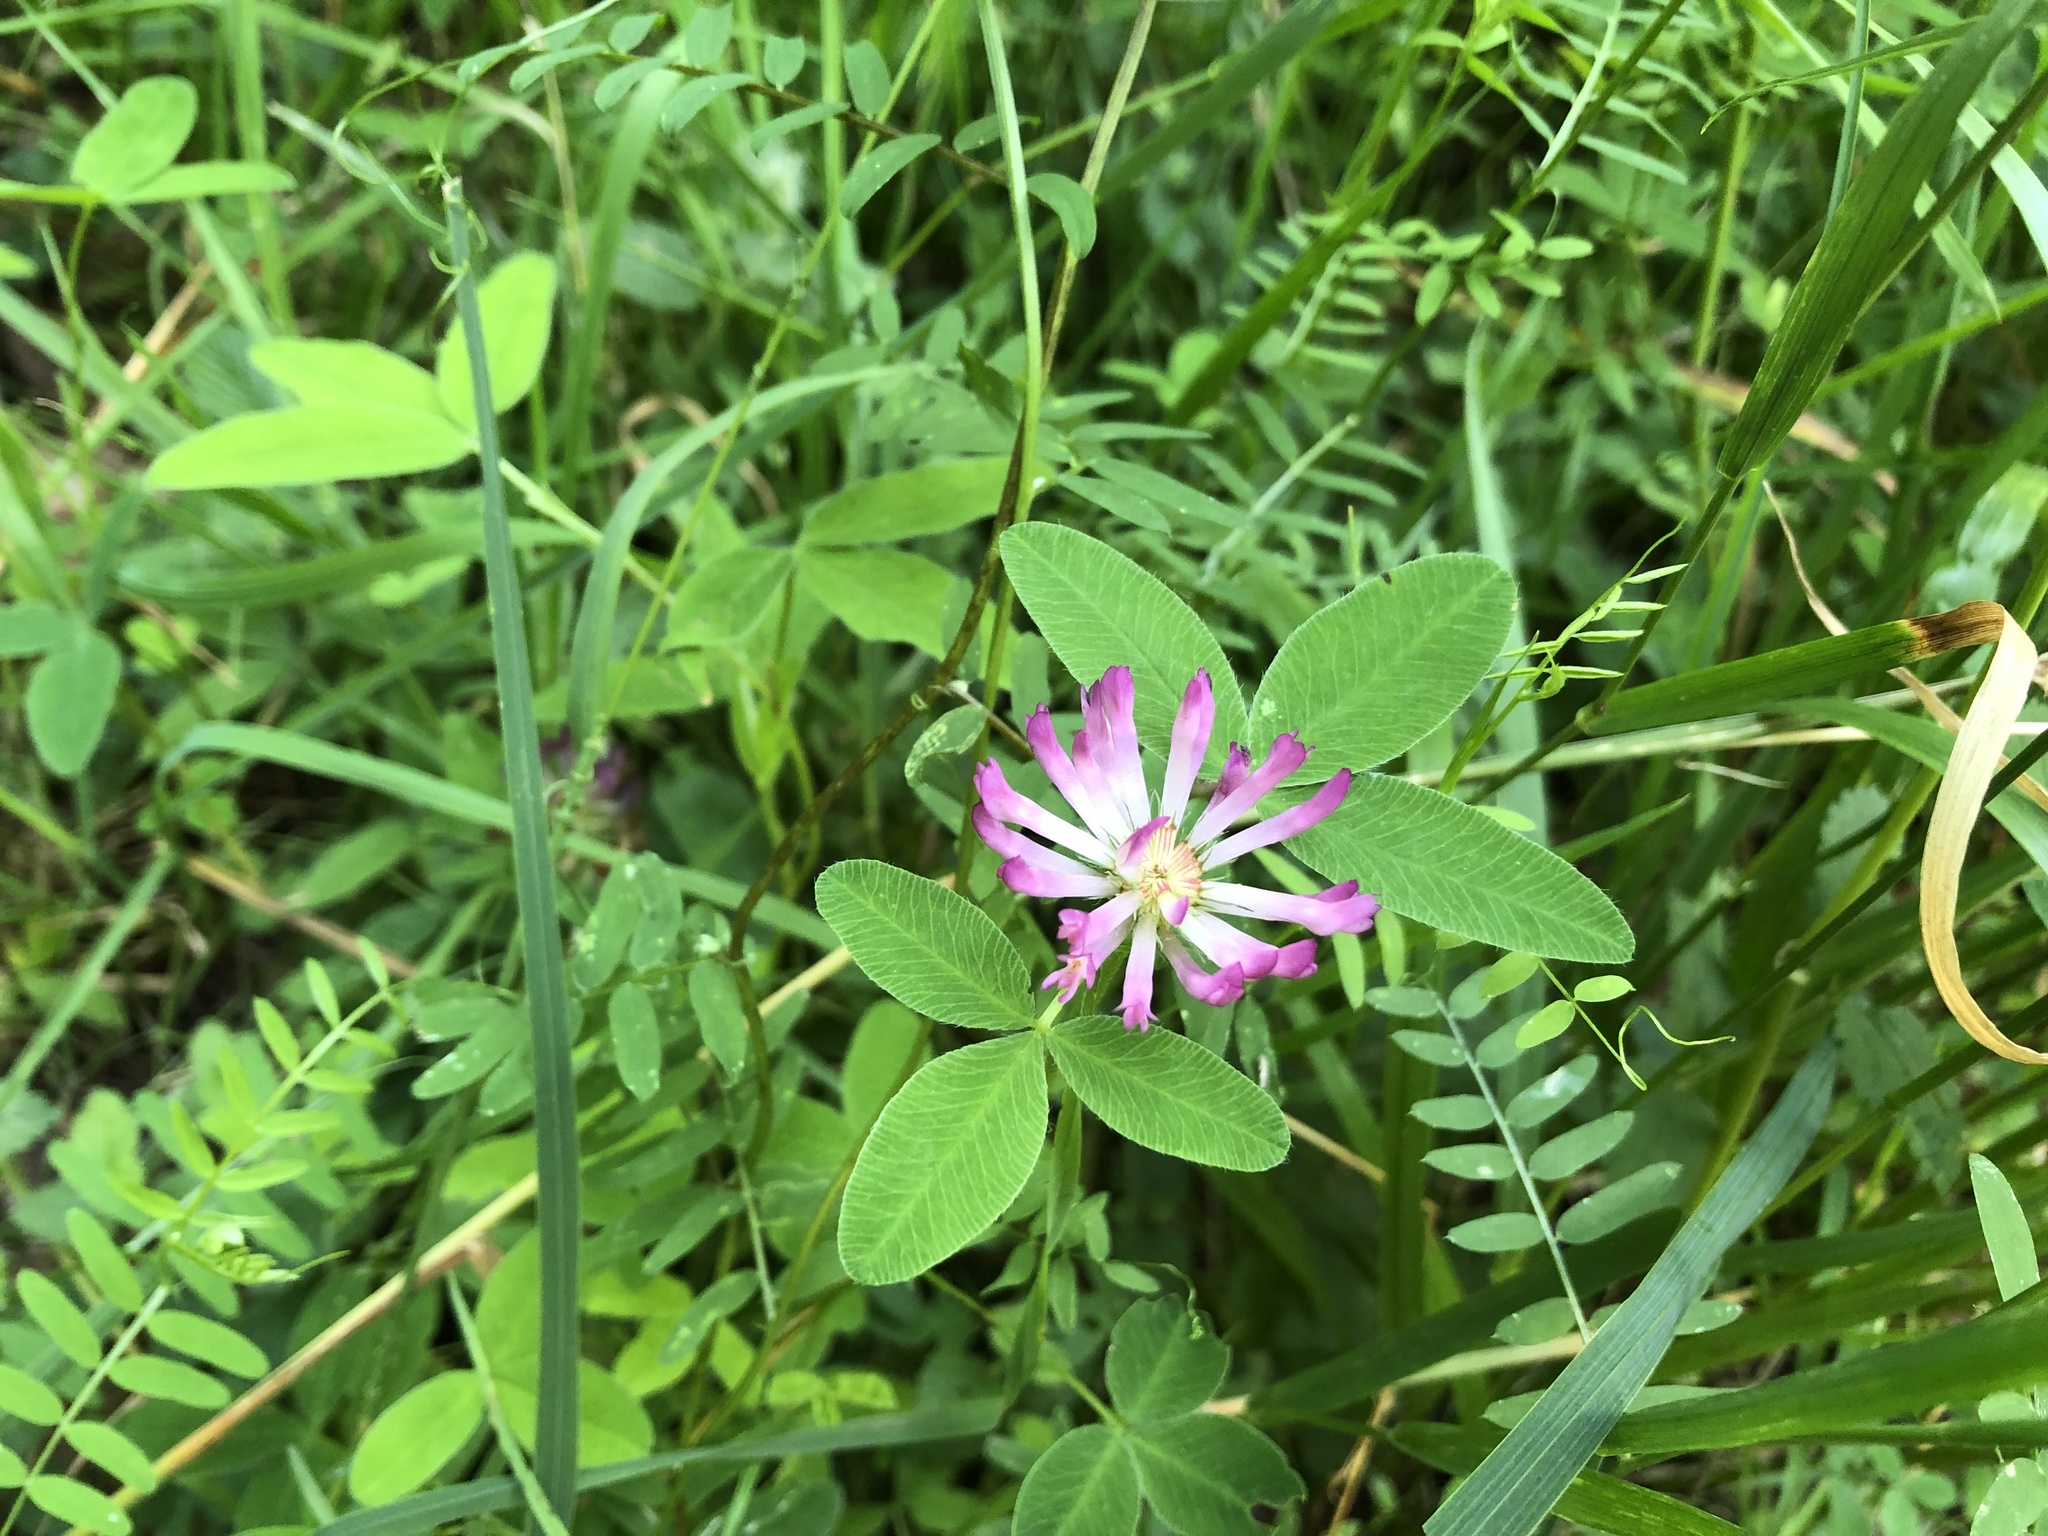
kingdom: Plantae
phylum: Tracheophyta
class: Magnoliopsida
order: Fabales
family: Fabaceae
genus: Trifolium
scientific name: Trifolium medium
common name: Zigzag clover
